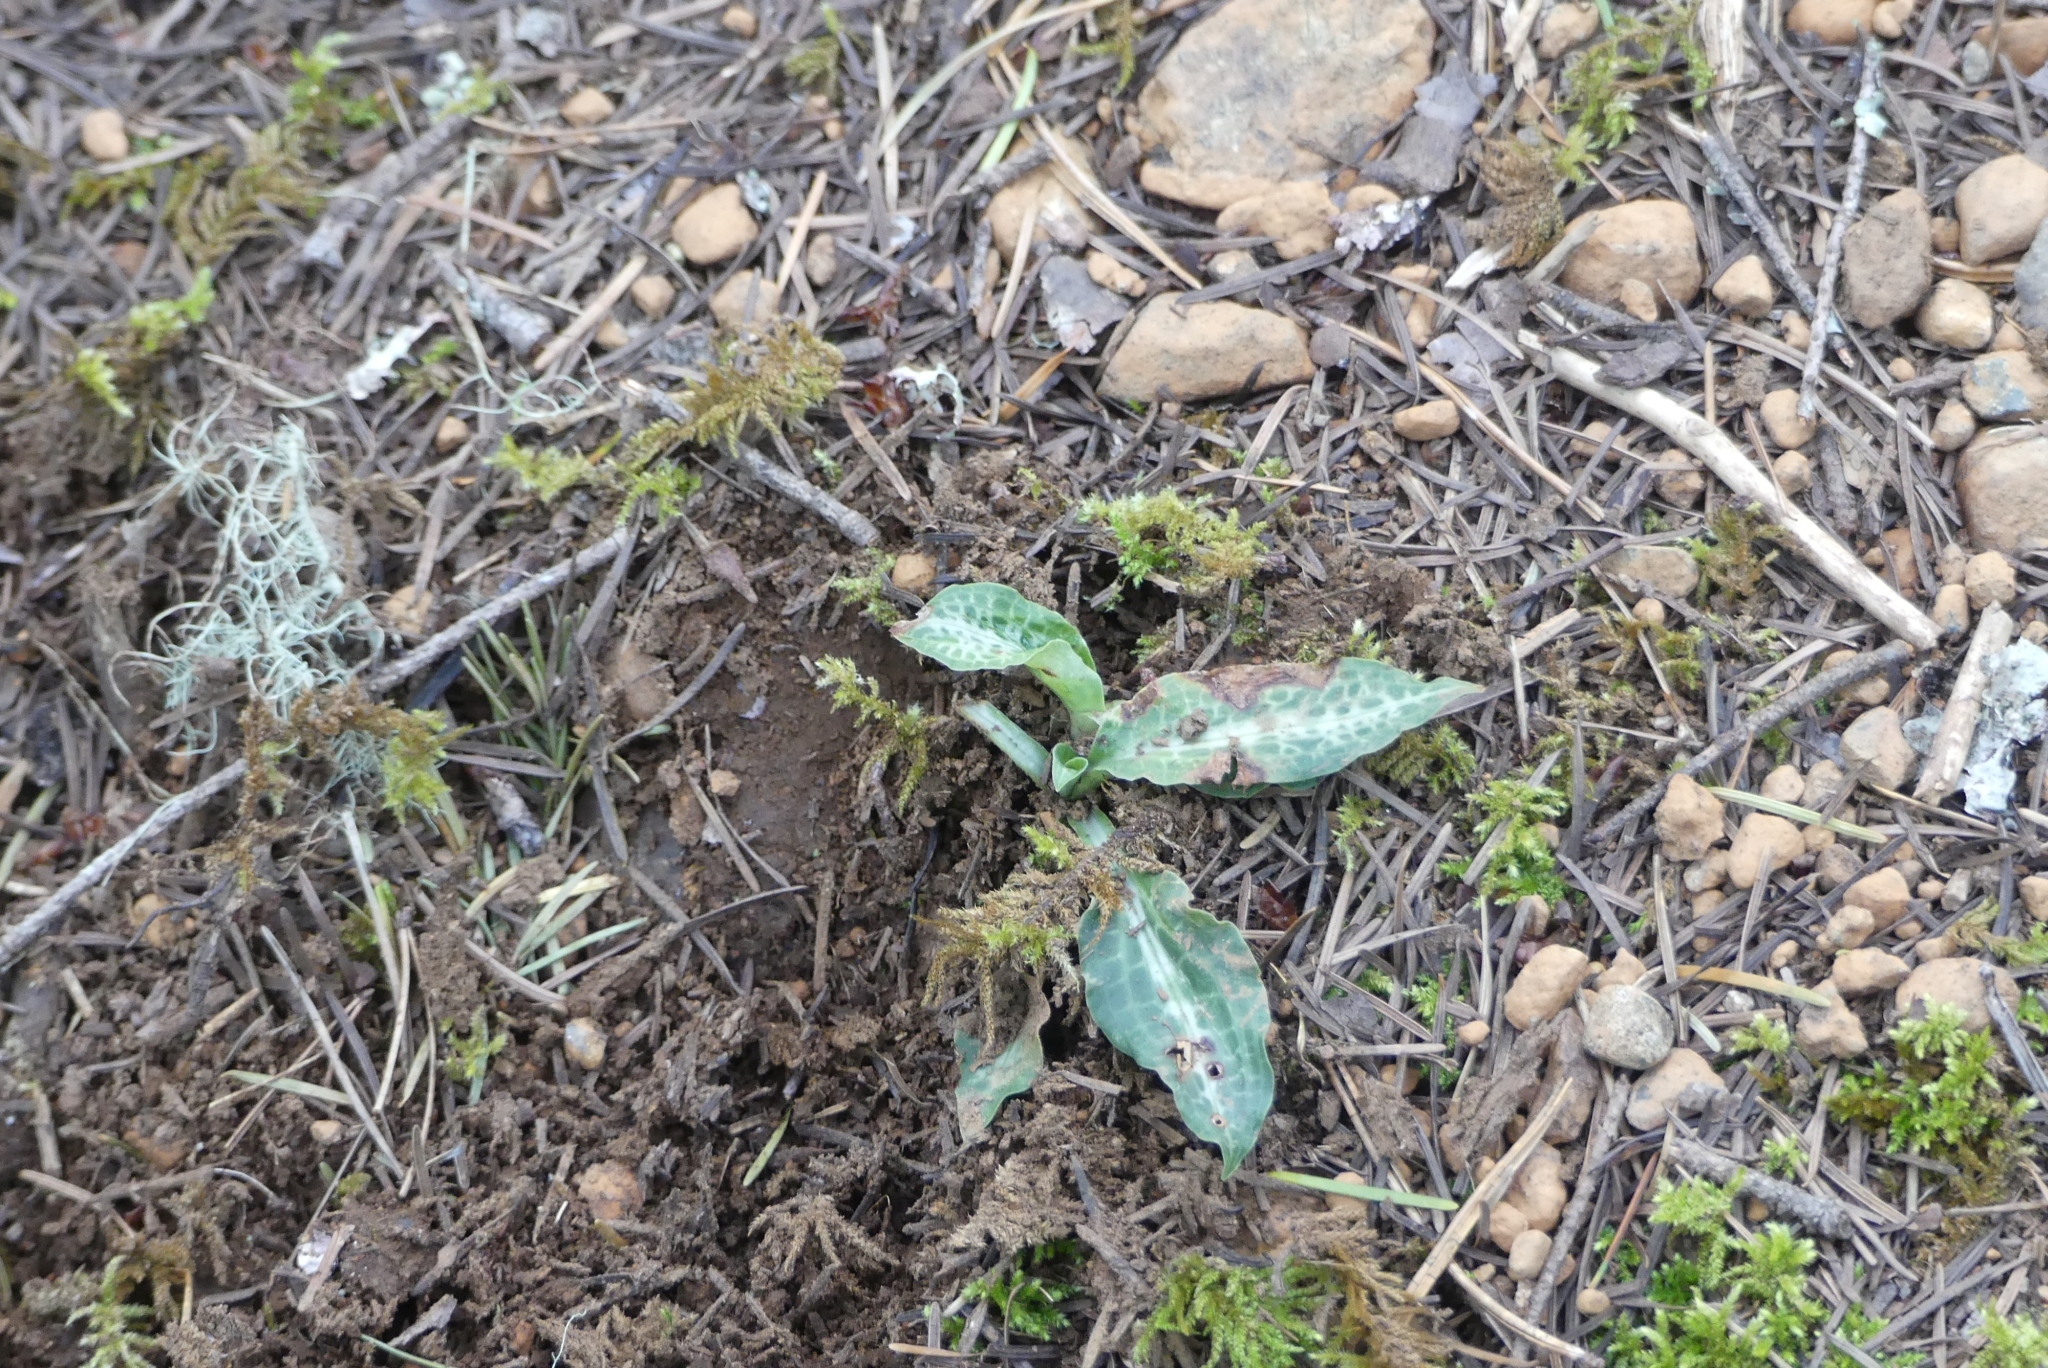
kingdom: Plantae
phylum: Tracheophyta
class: Liliopsida
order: Asparagales
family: Orchidaceae
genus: Goodyera
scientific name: Goodyera oblongifolia
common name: Giant rattlesnake-plantain
